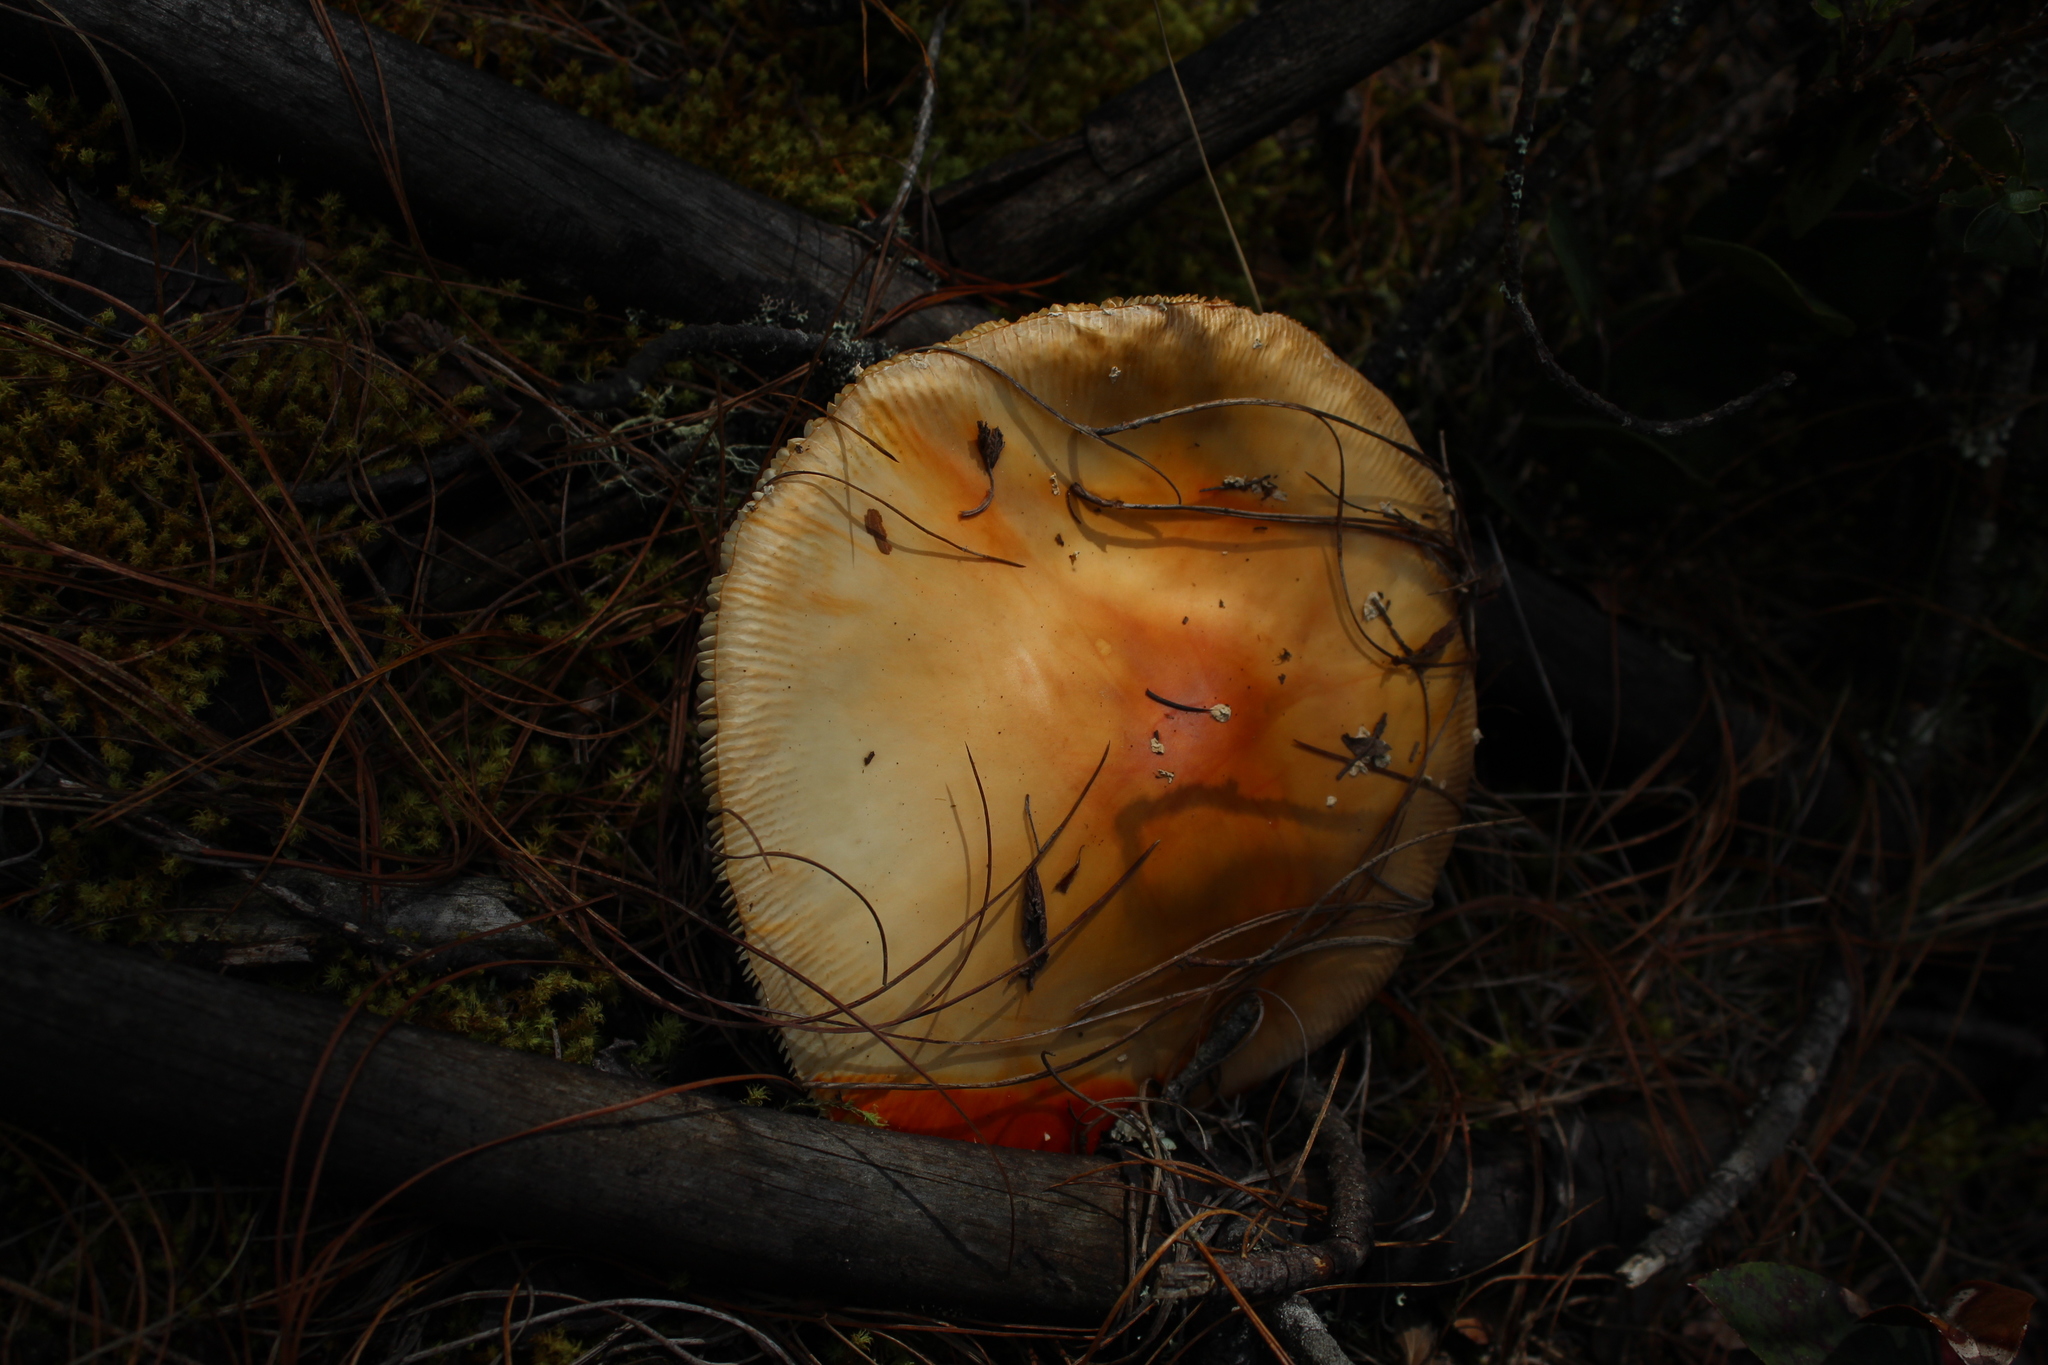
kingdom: Fungi
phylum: Basidiomycota
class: Agaricomycetes
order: Agaricales
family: Amanitaceae
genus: Amanita
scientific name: Amanita muscaria
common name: Fly agaric
